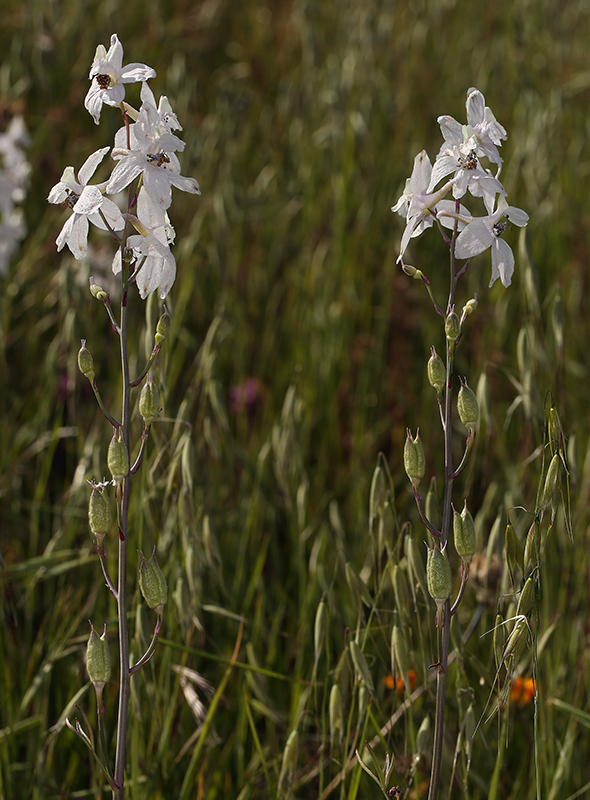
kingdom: Plantae
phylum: Tracheophyta
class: Magnoliopsida
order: Ranunculales
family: Ranunculaceae
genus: Delphinium
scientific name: Delphinium gypsophilum
